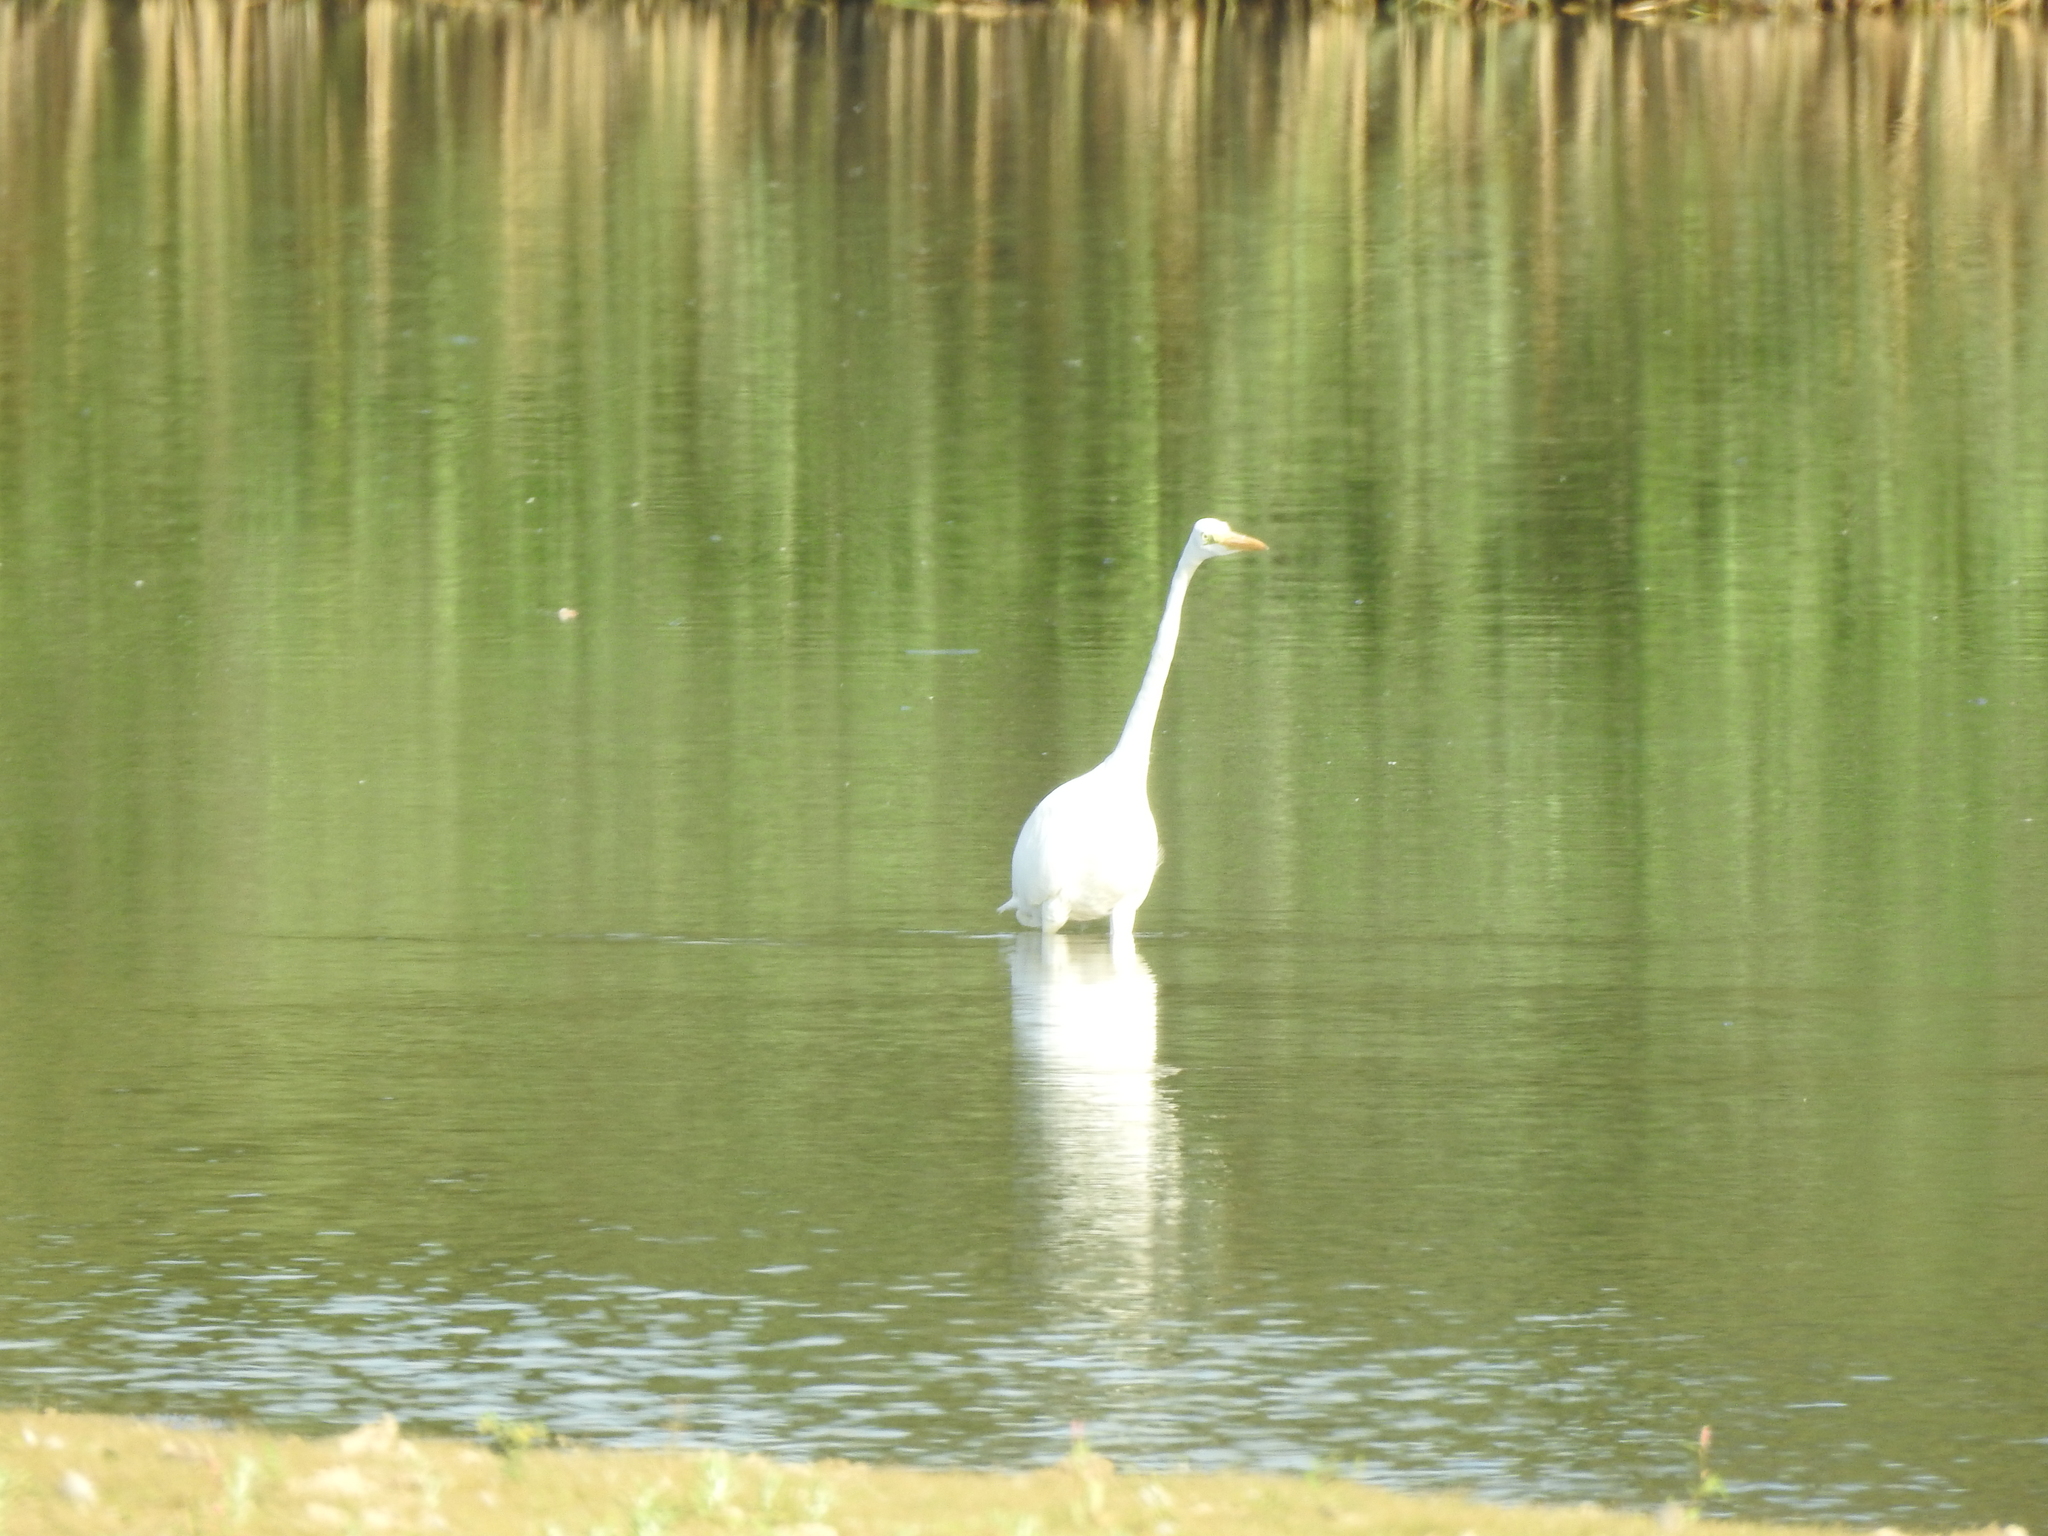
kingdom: Animalia
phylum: Chordata
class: Aves
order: Pelecaniformes
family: Ardeidae
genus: Ardea
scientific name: Ardea alba
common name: Great egret
